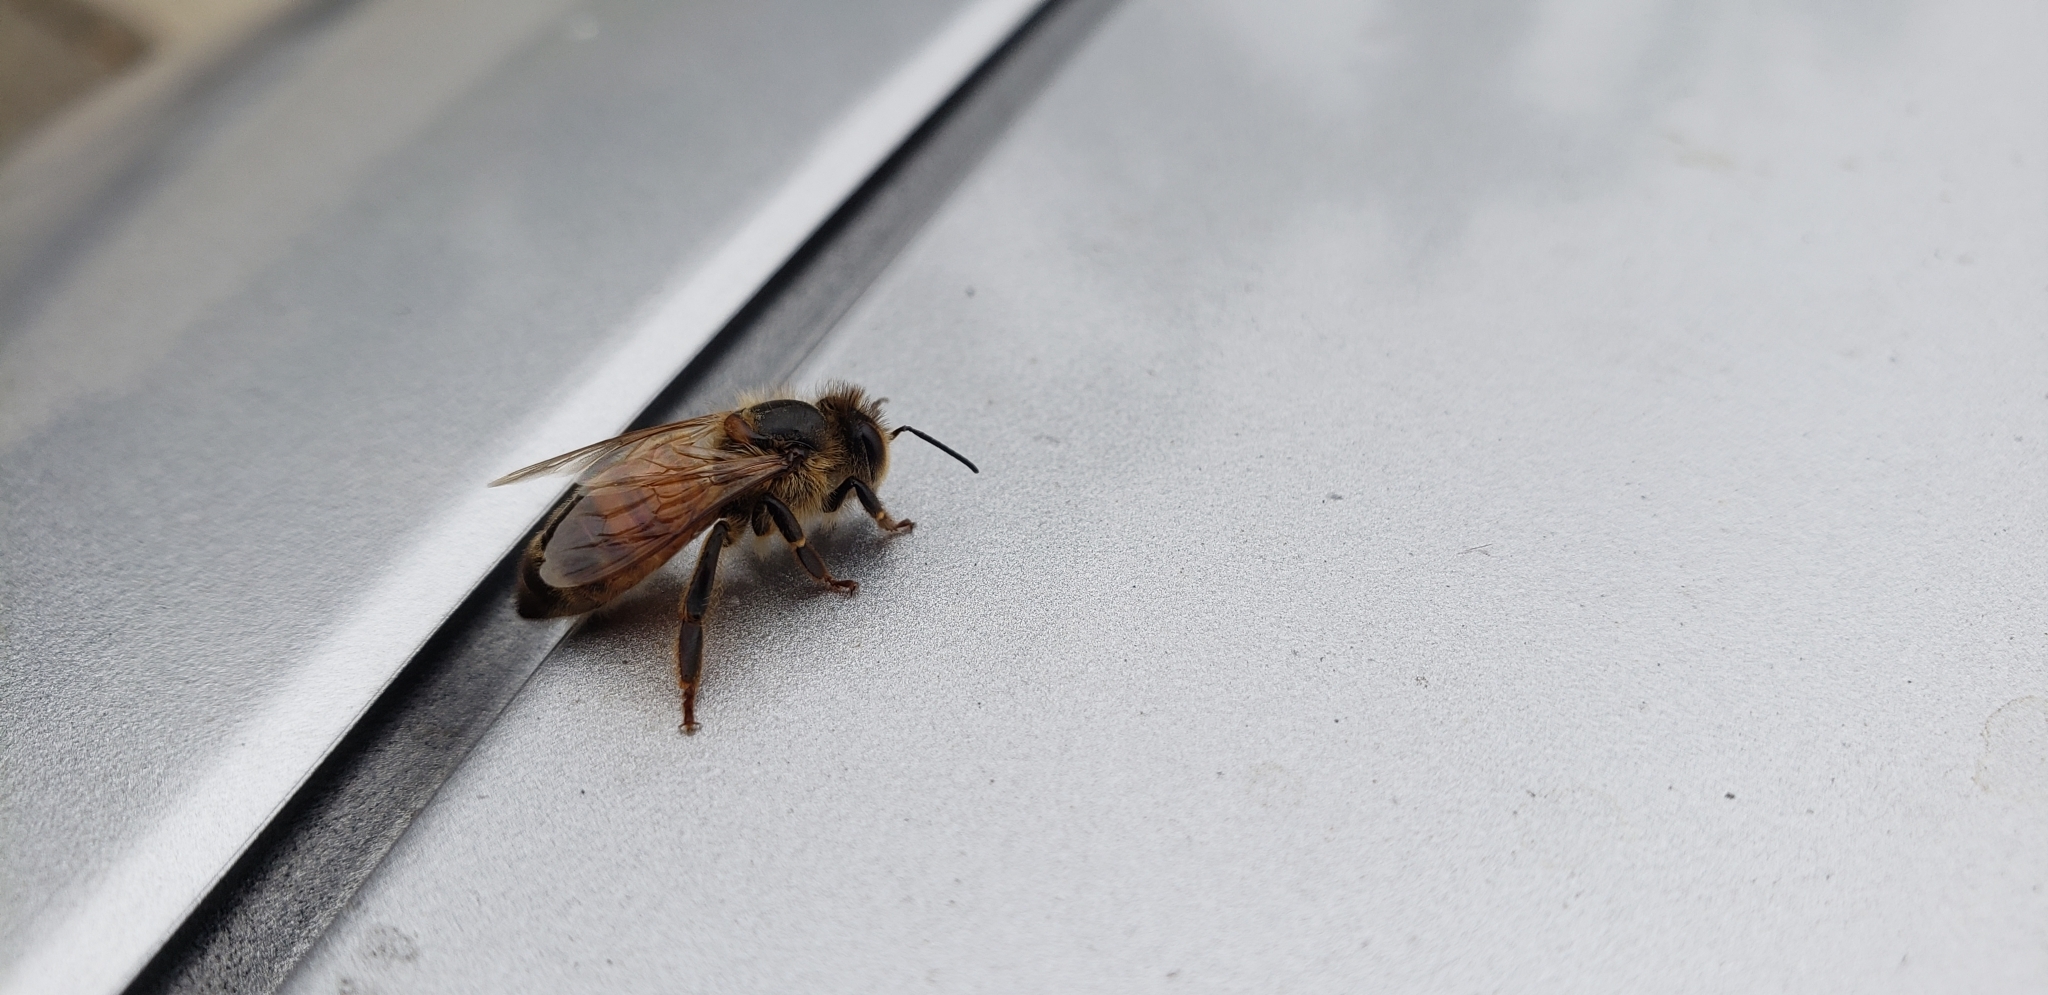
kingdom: Animalia
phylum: Arthropoda
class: Insecta
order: Hymenoptera
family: Apidae
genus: Apis
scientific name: Apis mellifera
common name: Honey bee
